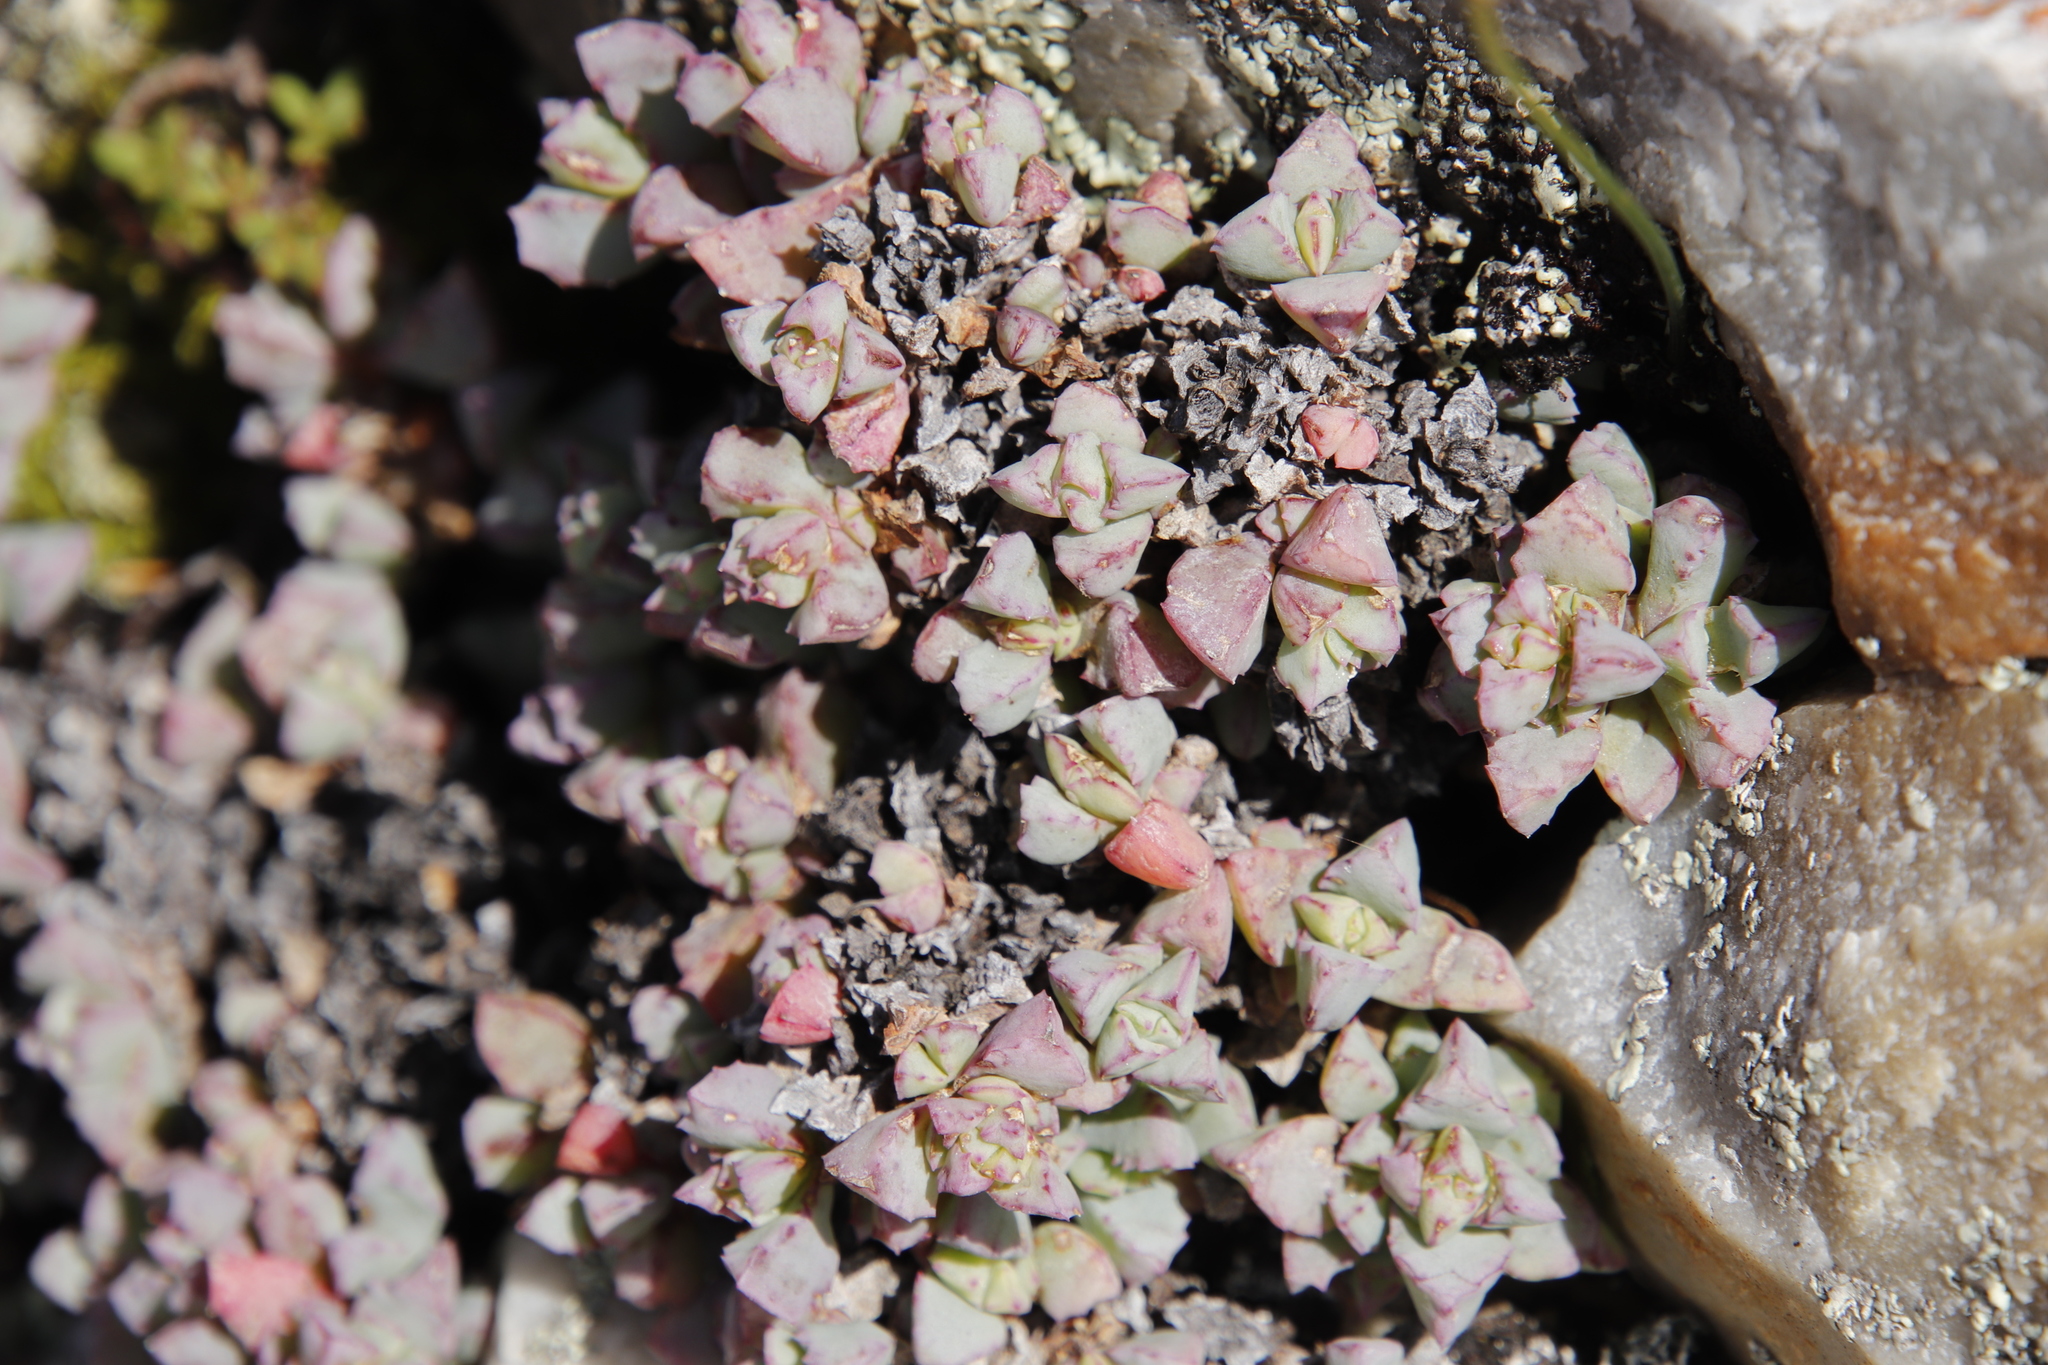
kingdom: Plantae
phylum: Tracheophyta
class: Magnoliopsida
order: Caryophyllales
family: Aizoaceae
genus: Oscularia
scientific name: Oscularia deltoides
